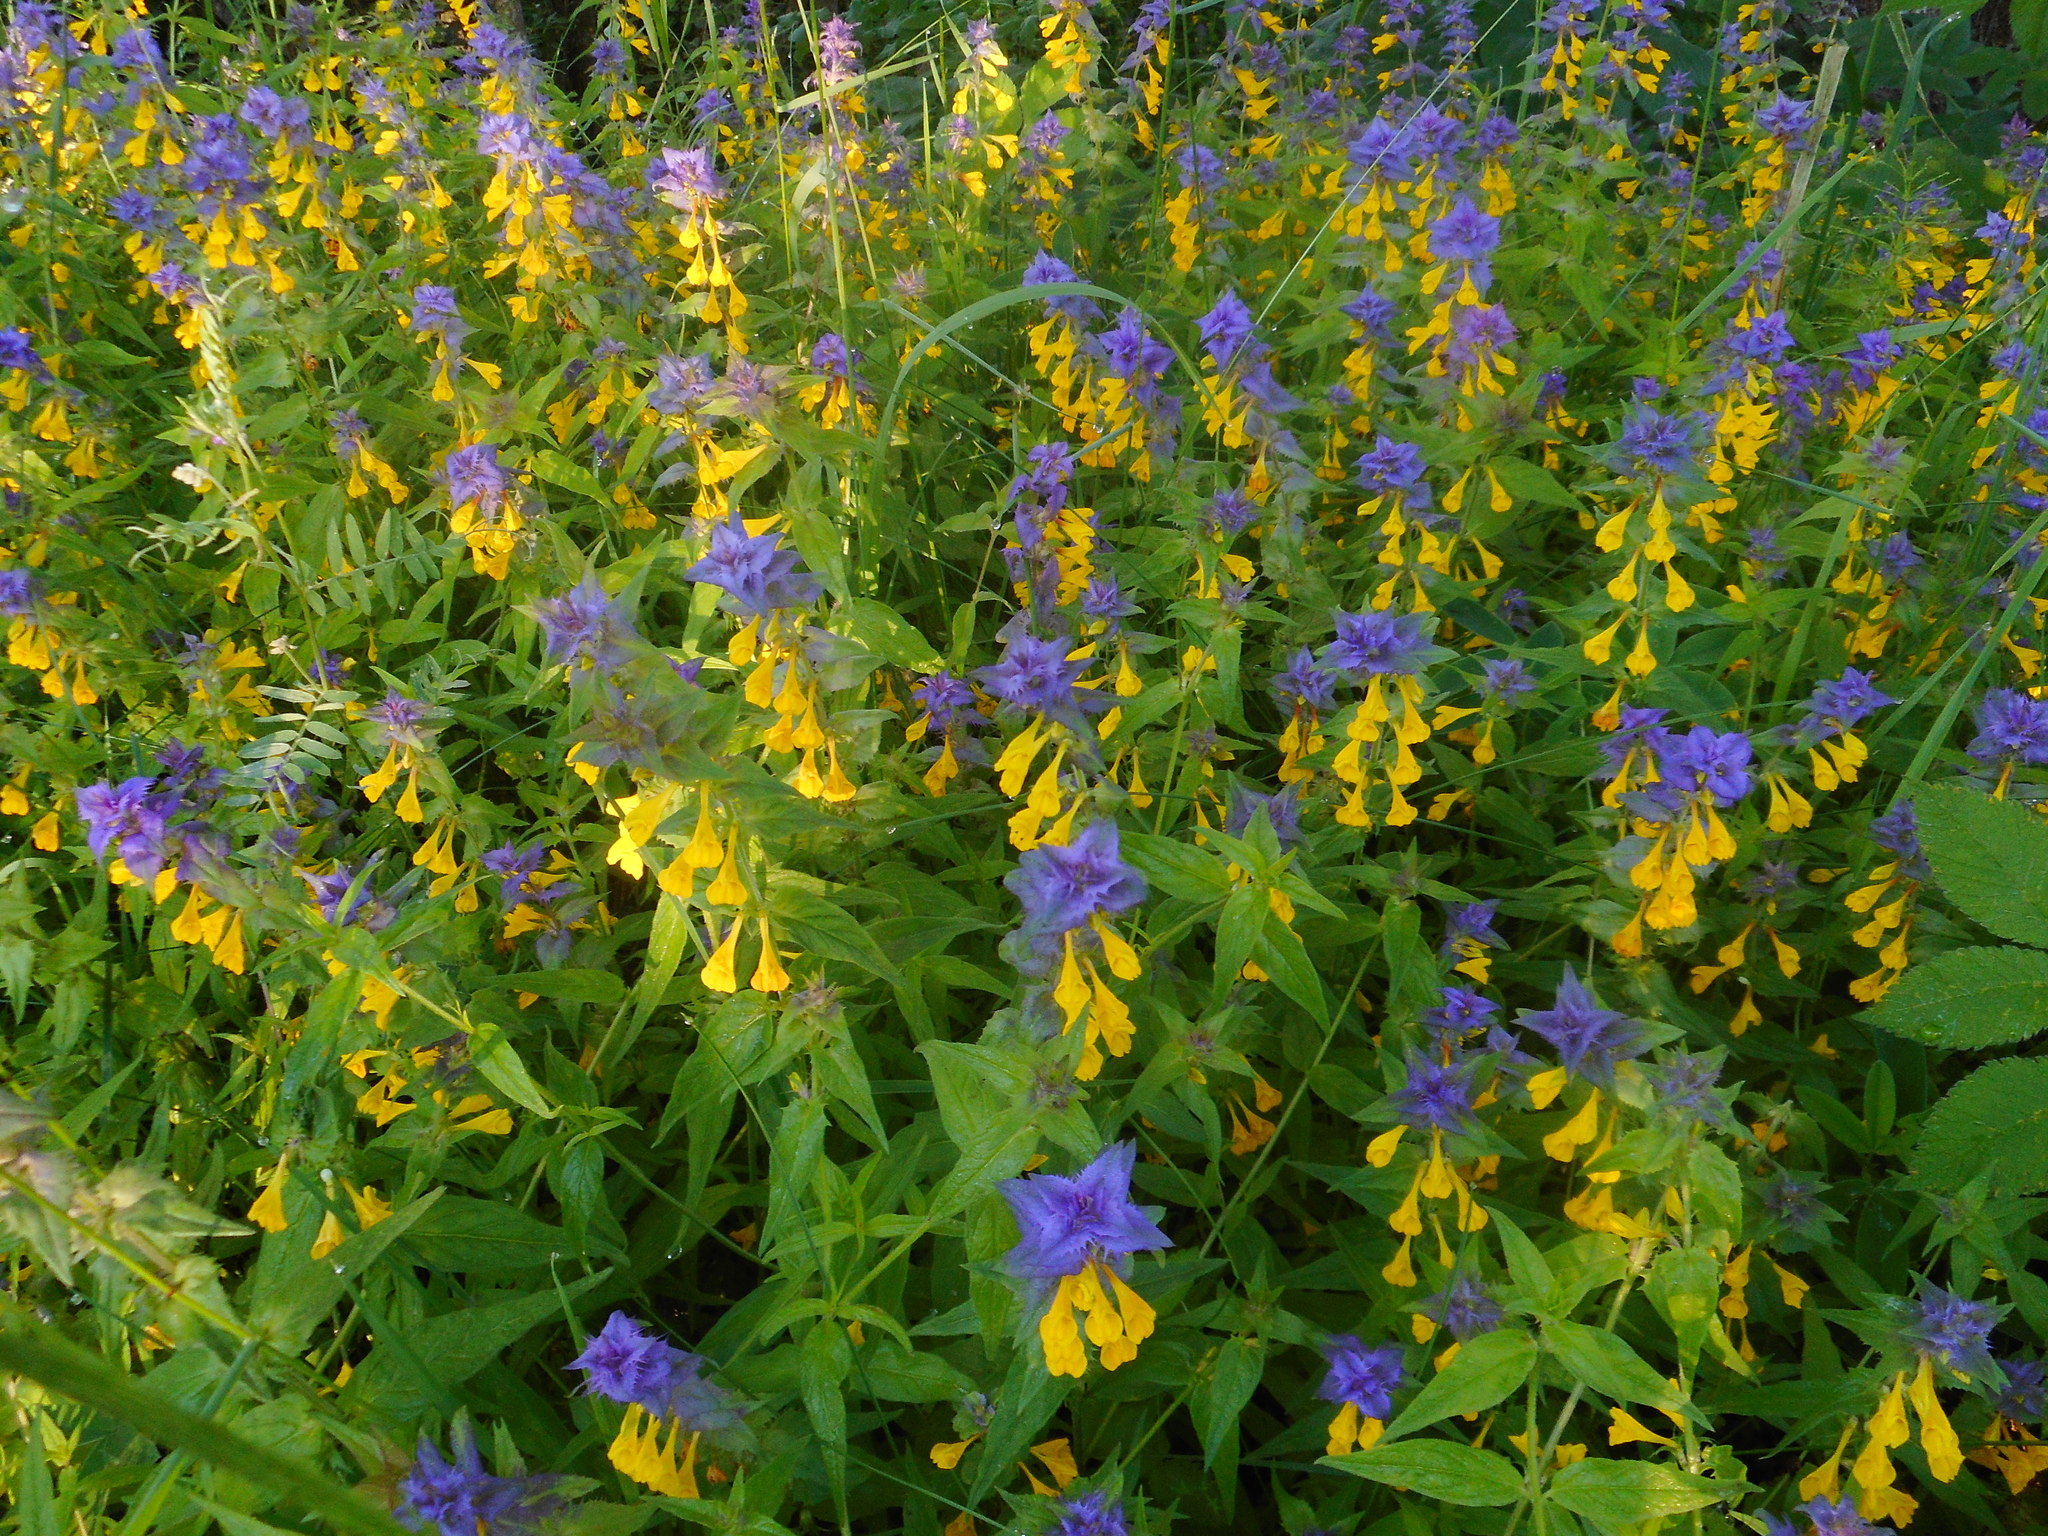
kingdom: Plantae
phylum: Tracheophyta
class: Magnoliopsida
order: Lamiales
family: Orobanchaceae
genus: Melampyrum
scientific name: Melampyrum nemorosum
